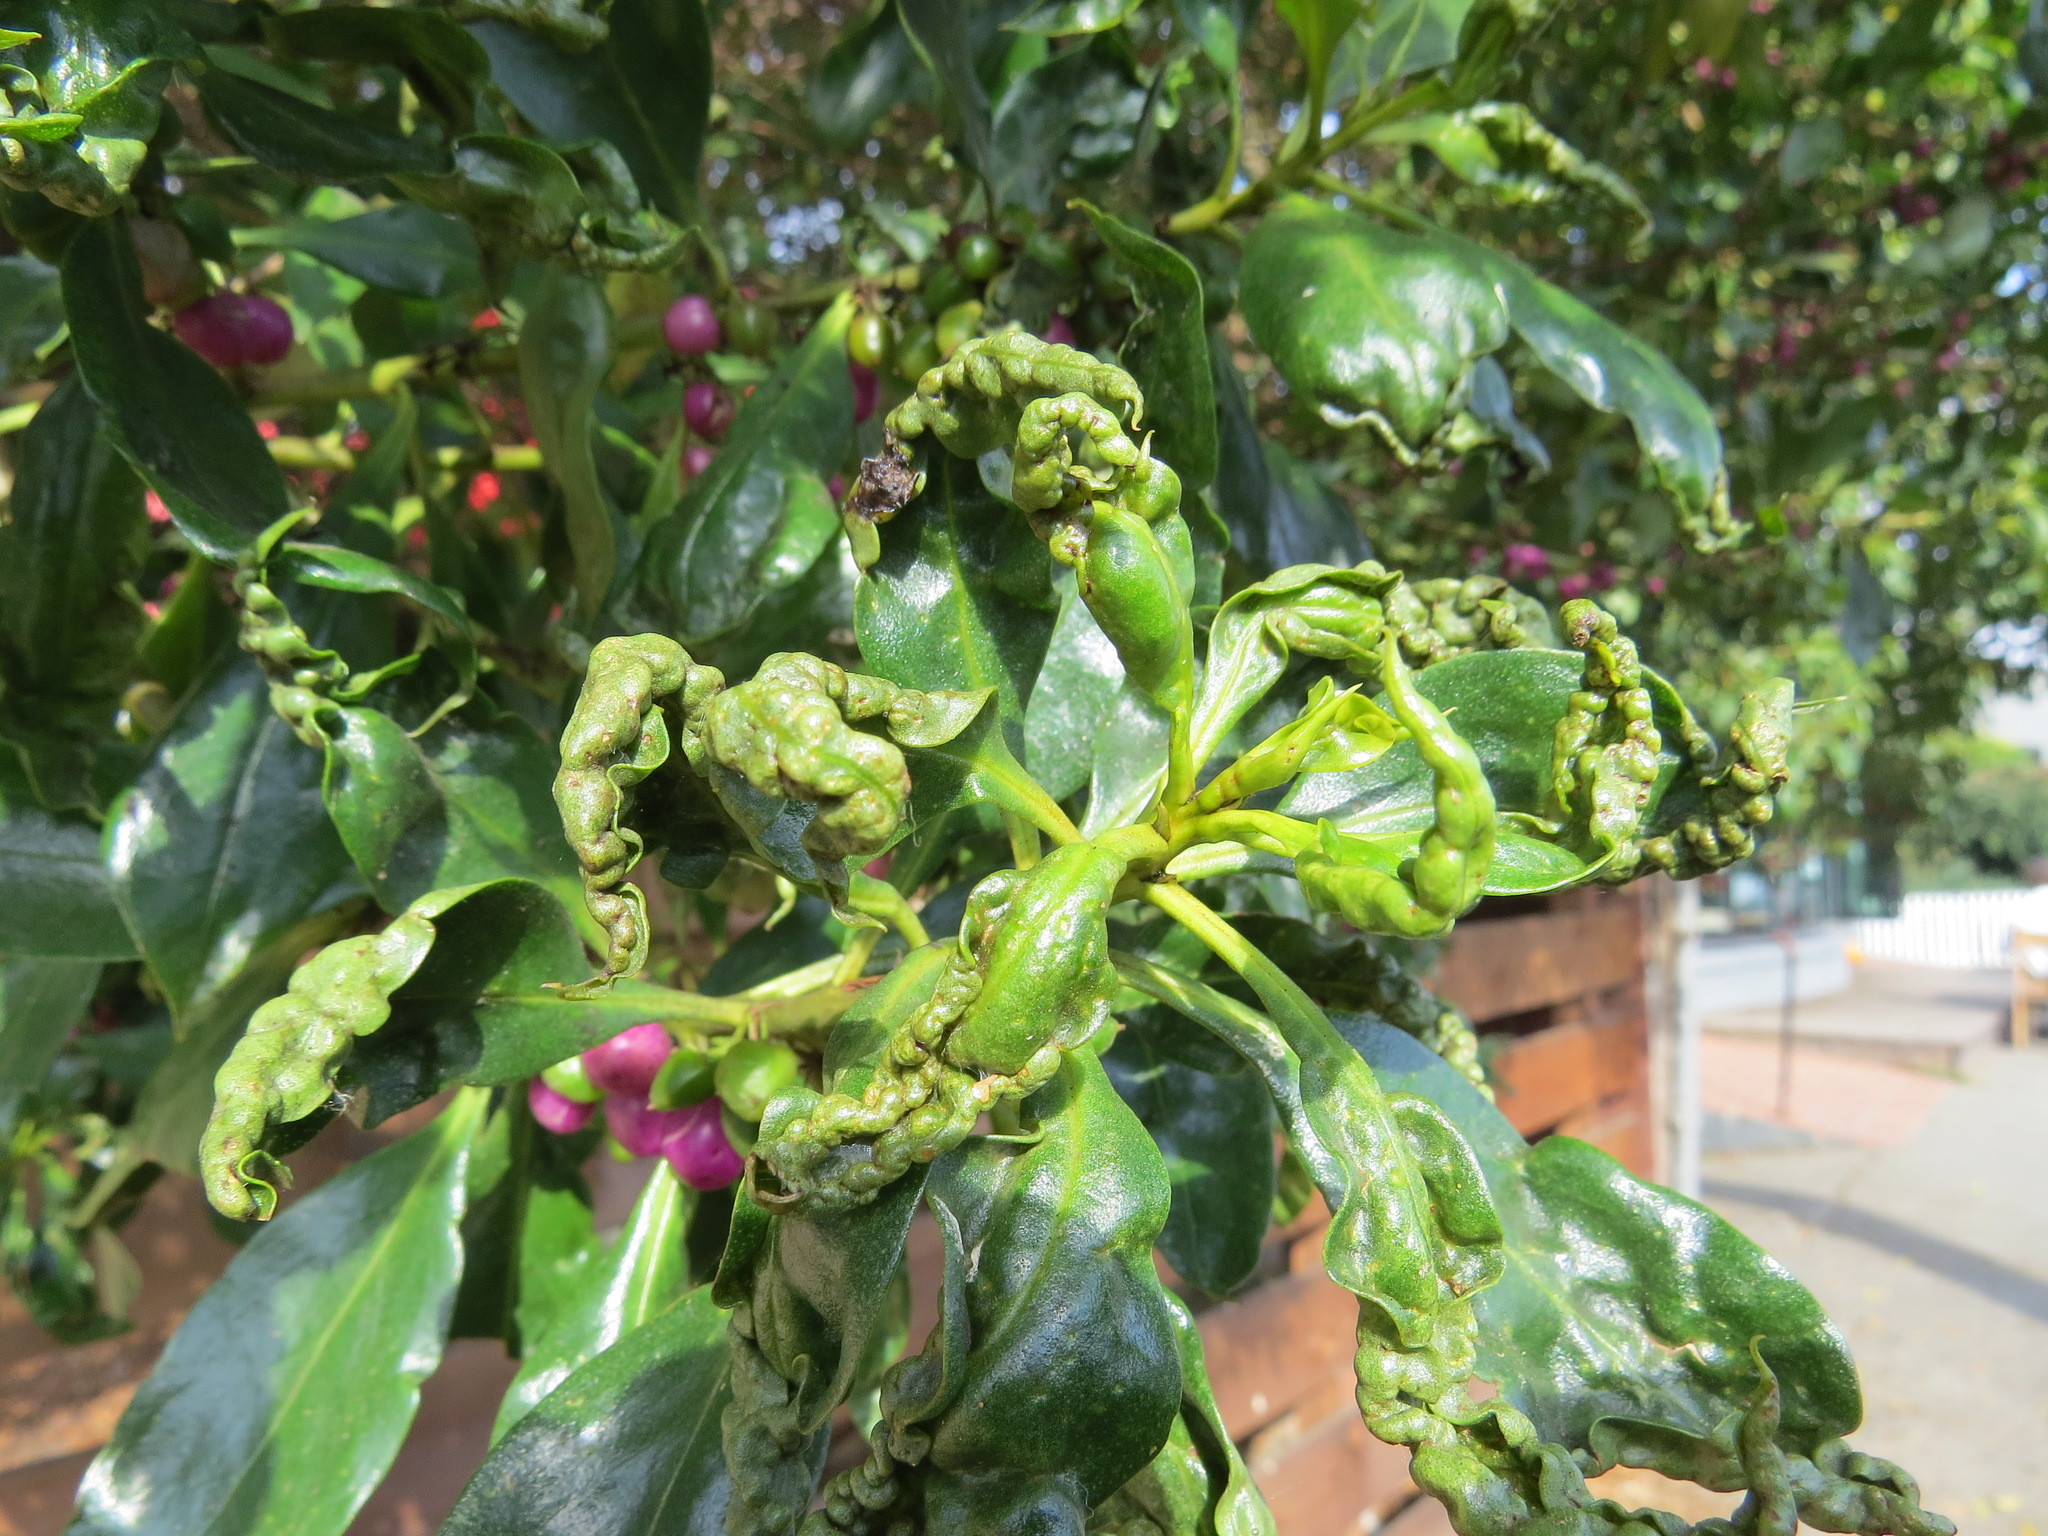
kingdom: Animalia
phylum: Arthropoda
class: Insecta
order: Thysanoptera
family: Phlaeothripidae
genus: Klambothrips
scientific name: Klambothrips myopori
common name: Myoporum thrips
